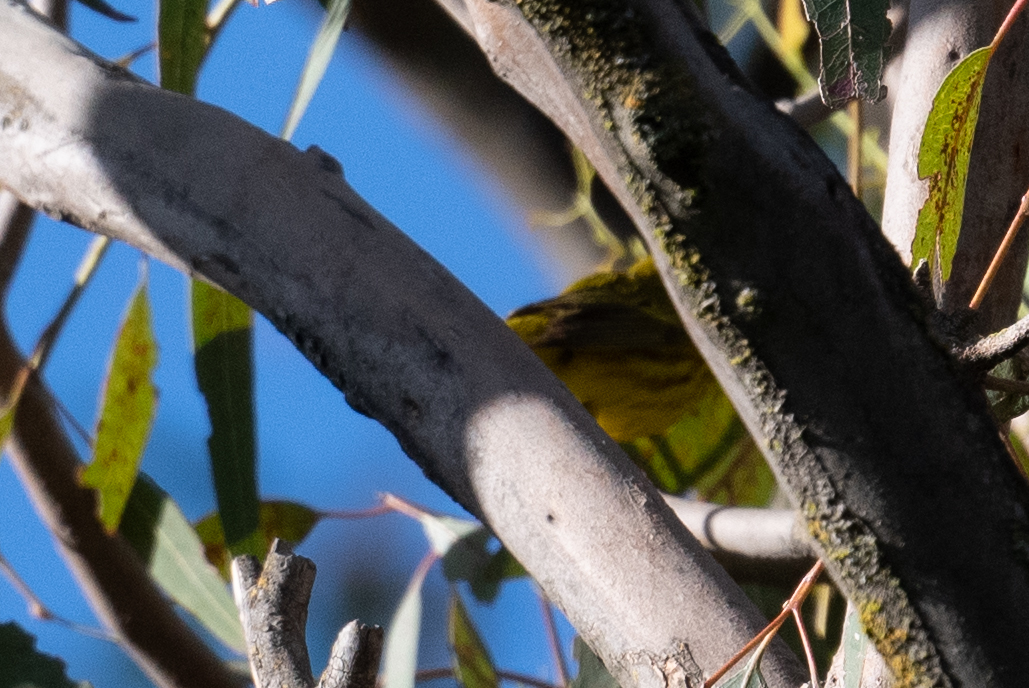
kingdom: Animalia
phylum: Chordata
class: Aves
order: Passeriformes
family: Parulidae
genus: Setophaga
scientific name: Setophaga petechia
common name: Yellow warbler
